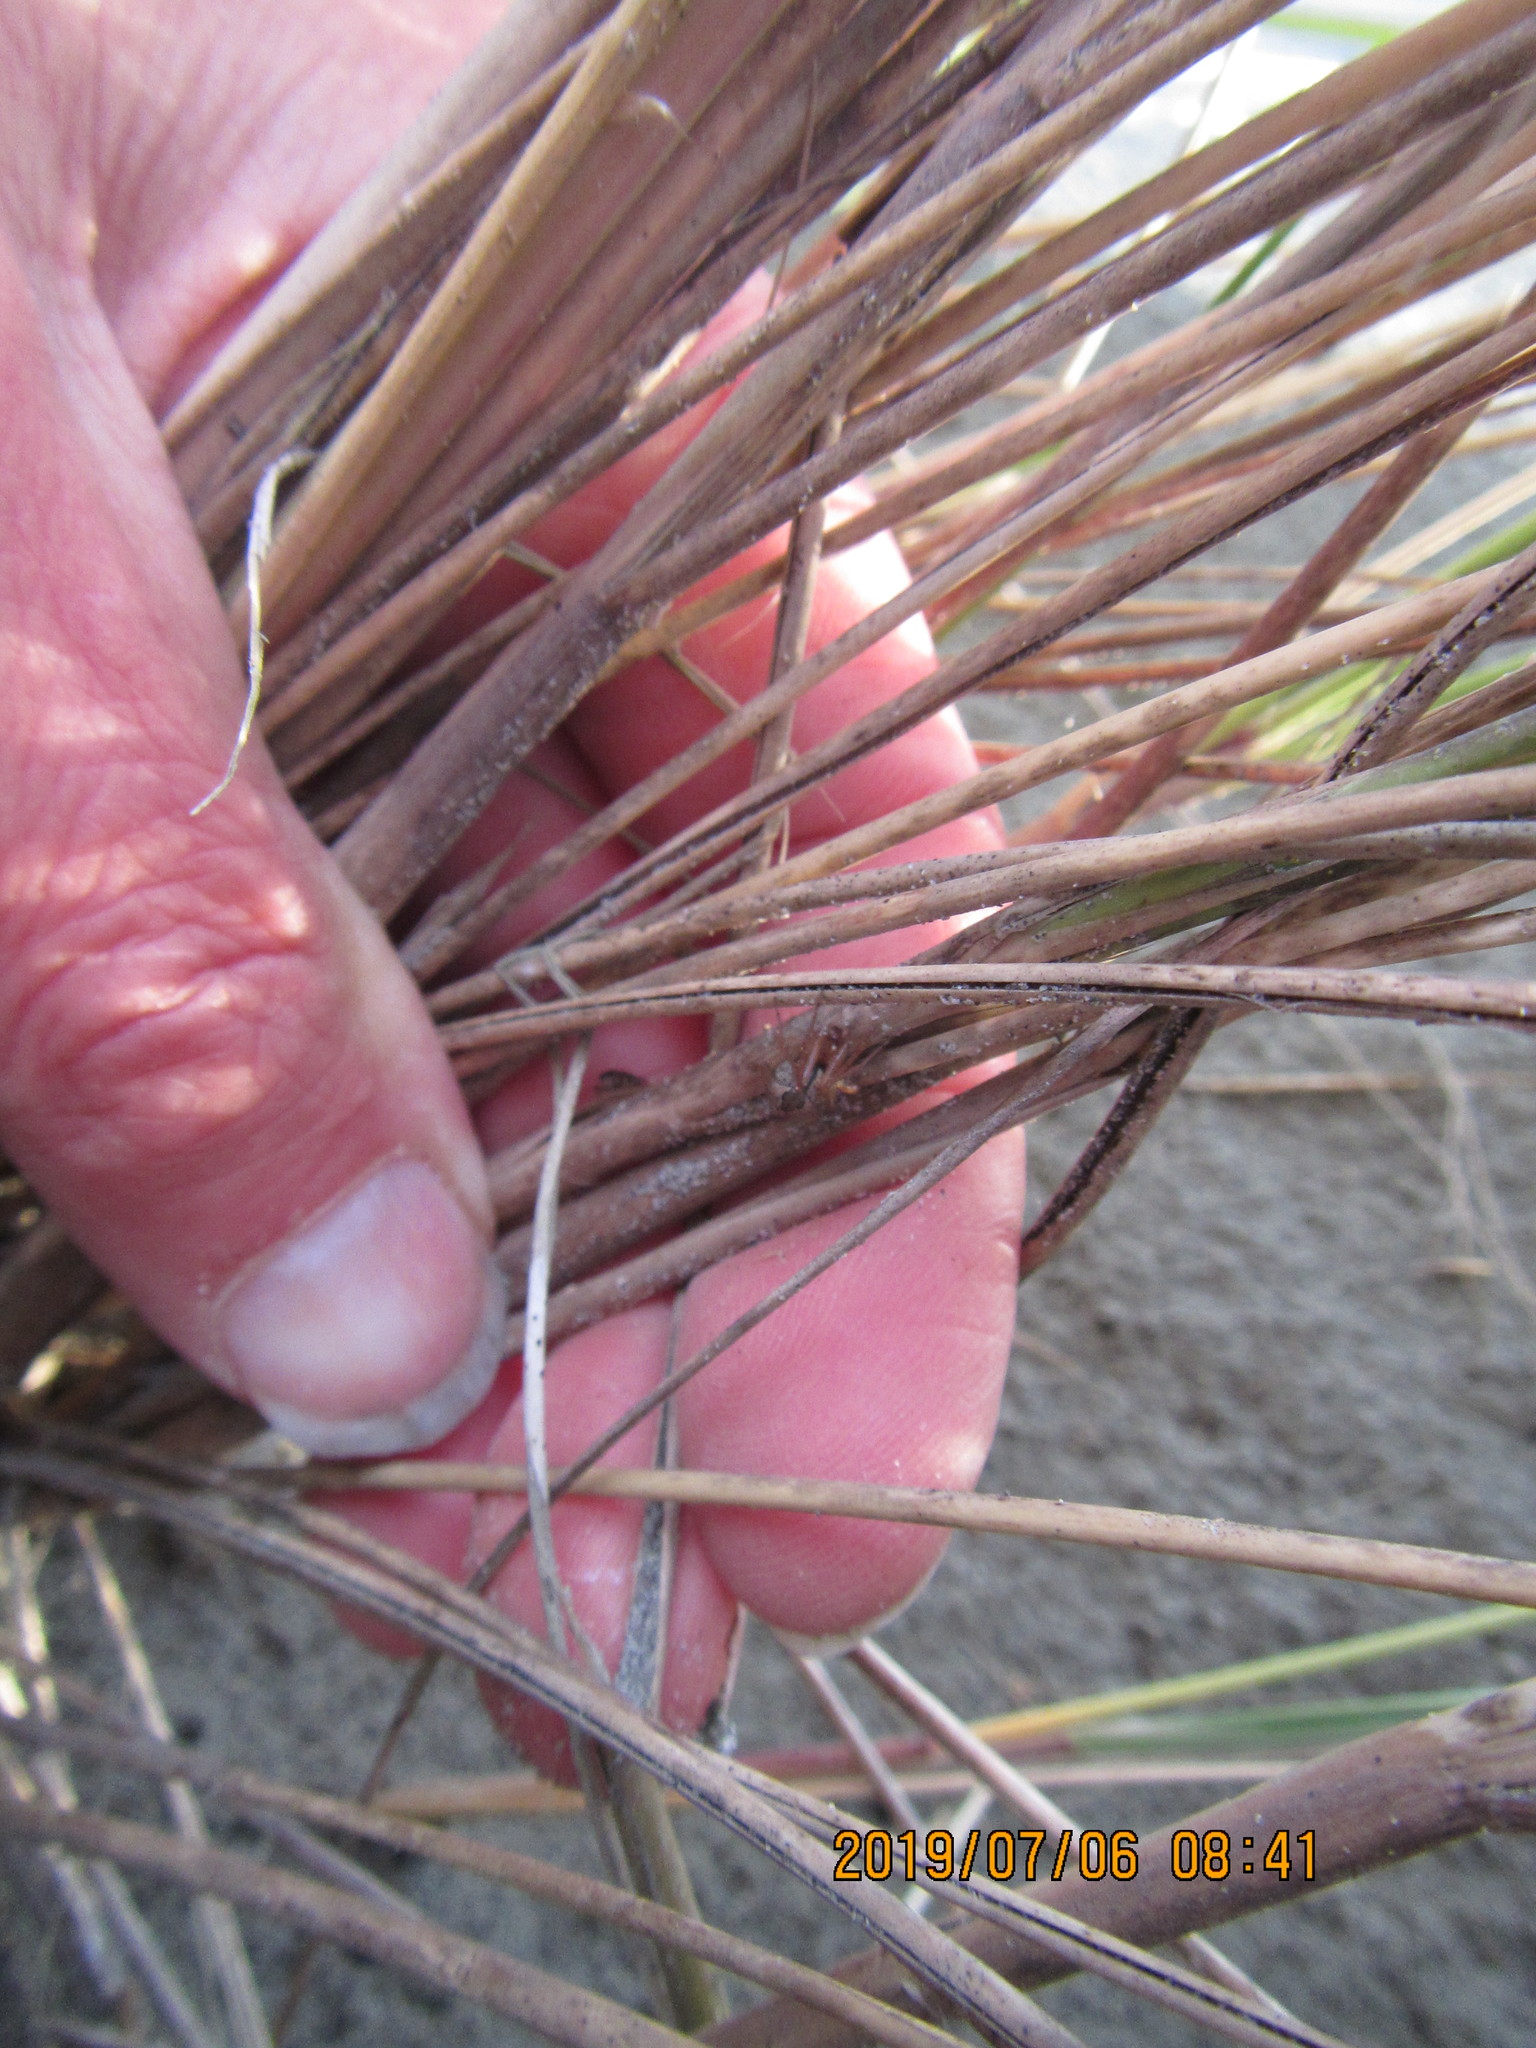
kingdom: Animalia
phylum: Arthropoda
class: Arachnida
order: Araneae
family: Theridiidae
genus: Cryptachaea
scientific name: Cryptachaea veruculata
